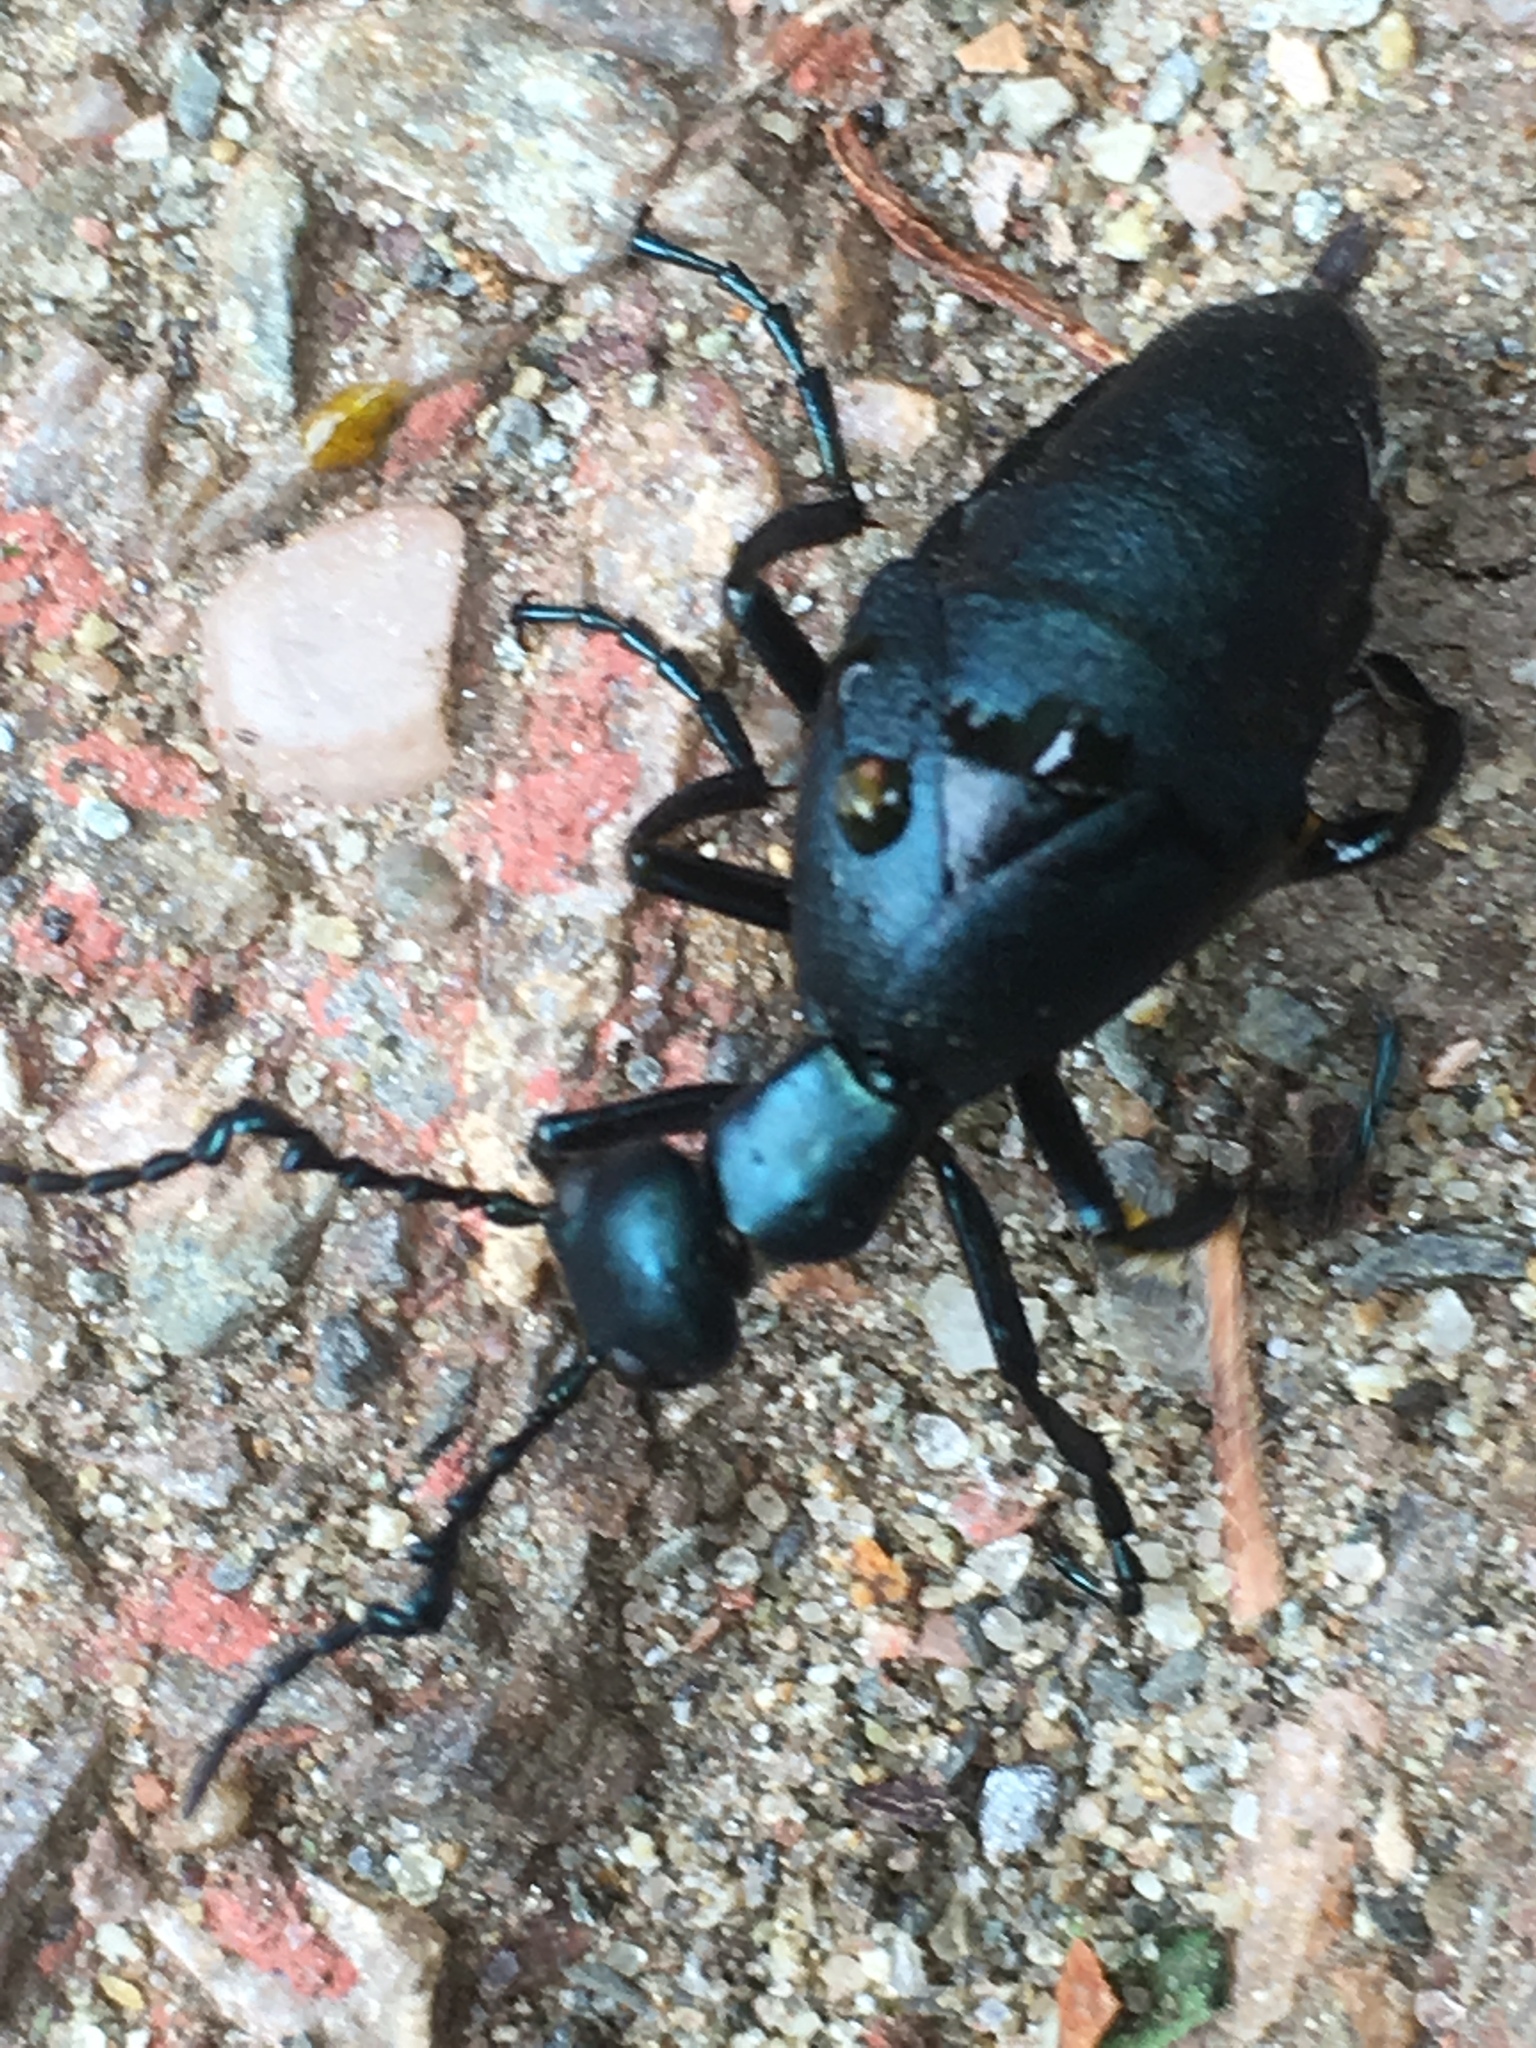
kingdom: Animalia
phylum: Arthropoda
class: Insecta
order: Coleoptera
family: Meloidae
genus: Meloe
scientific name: Meloe impressus
